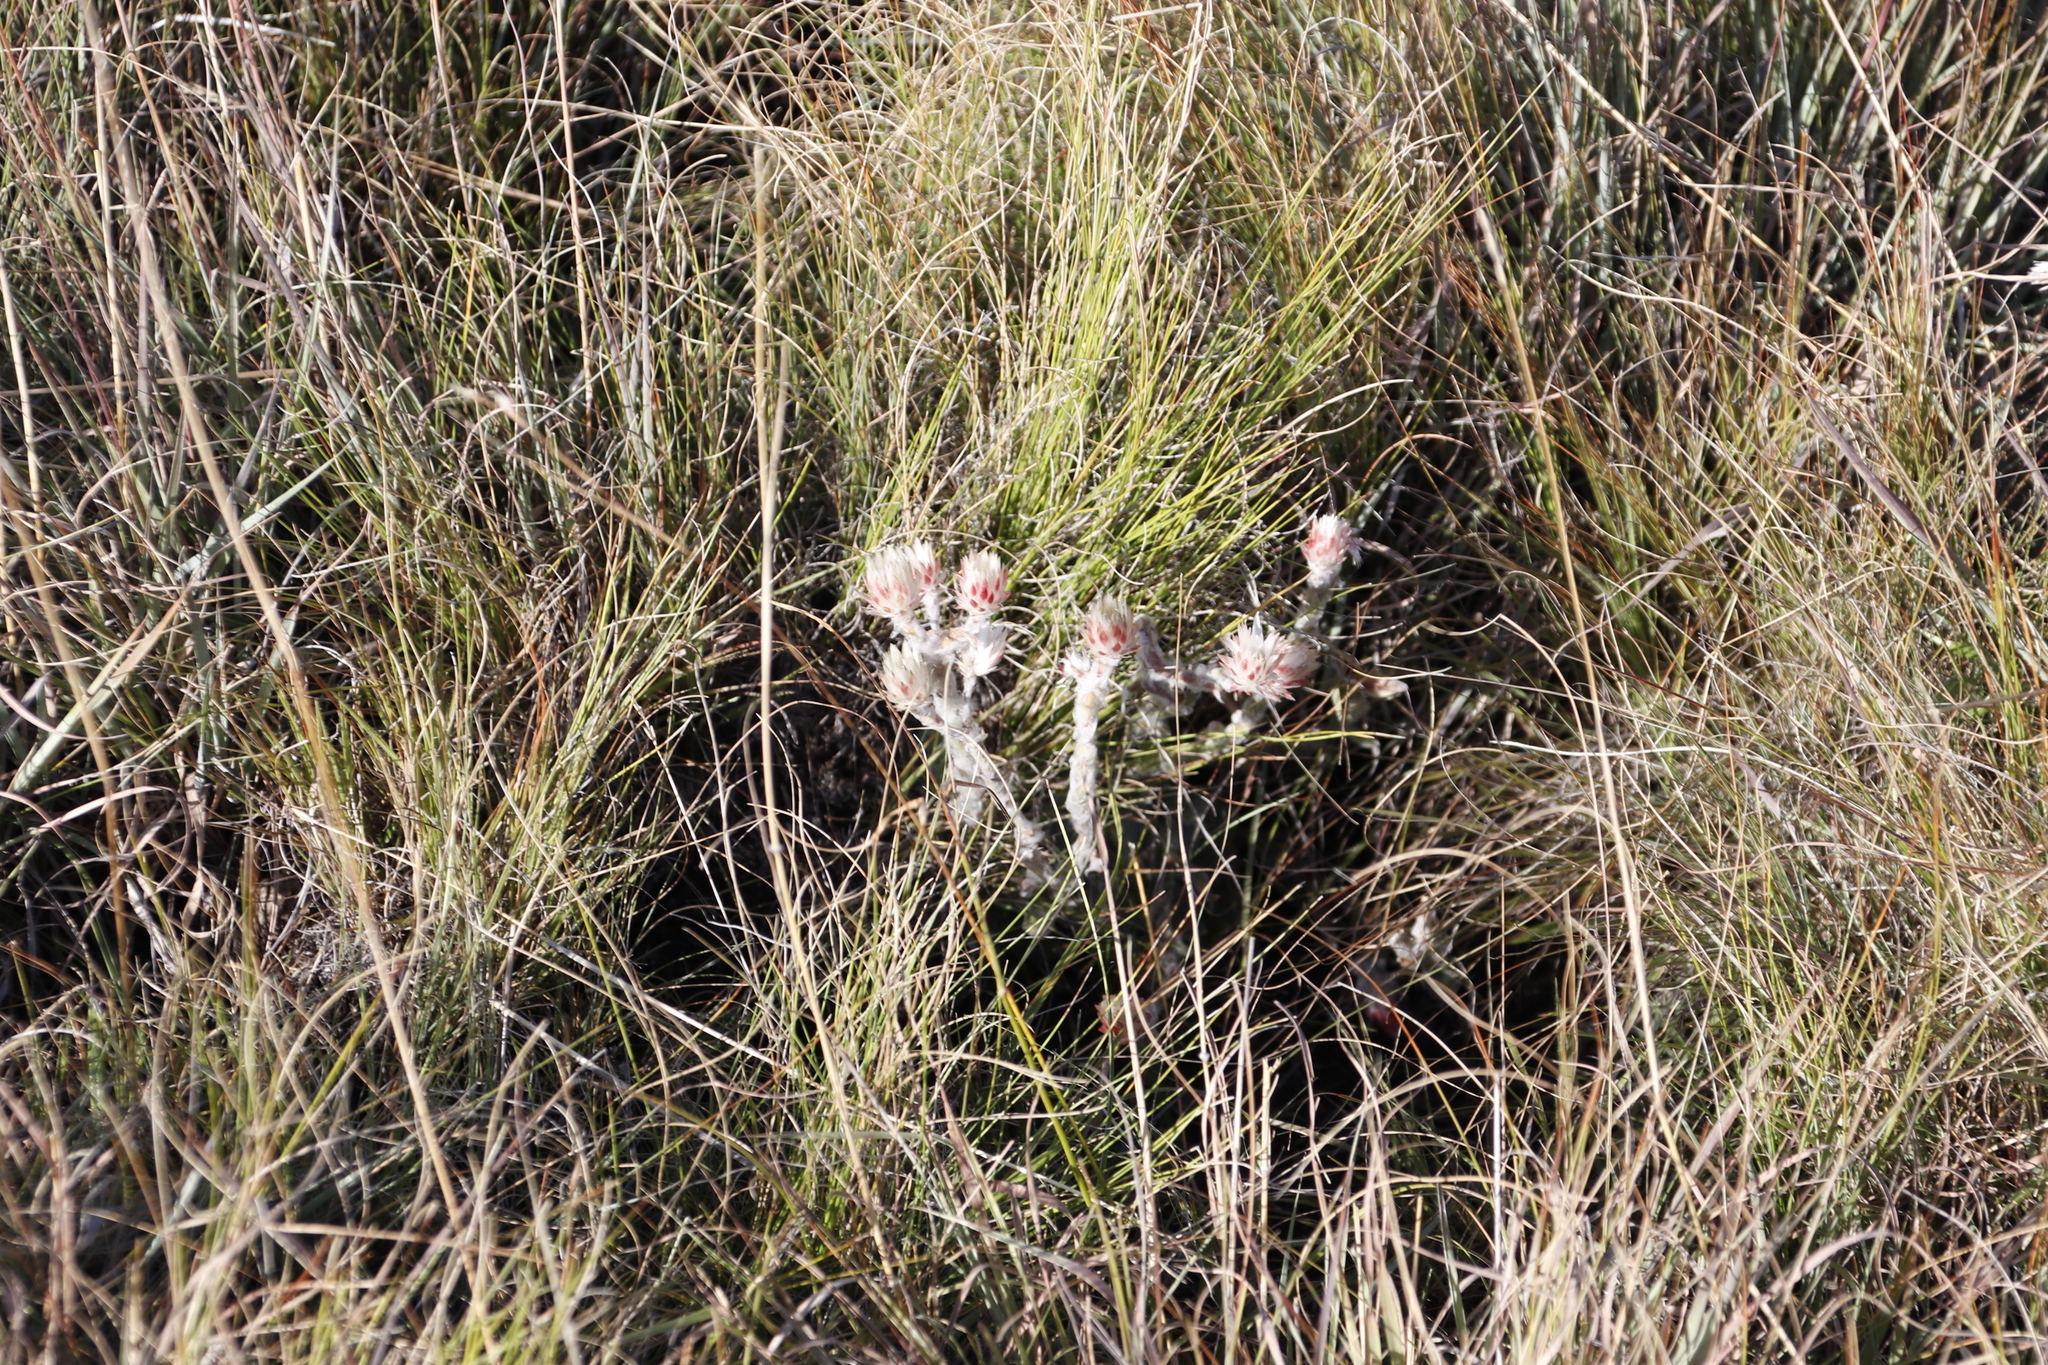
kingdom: Plantae
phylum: Tracheophyta
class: Magnoliopsida
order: Asterales
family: Asteraceae
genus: Helichrysum
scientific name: Helichrysum adenocarpum
